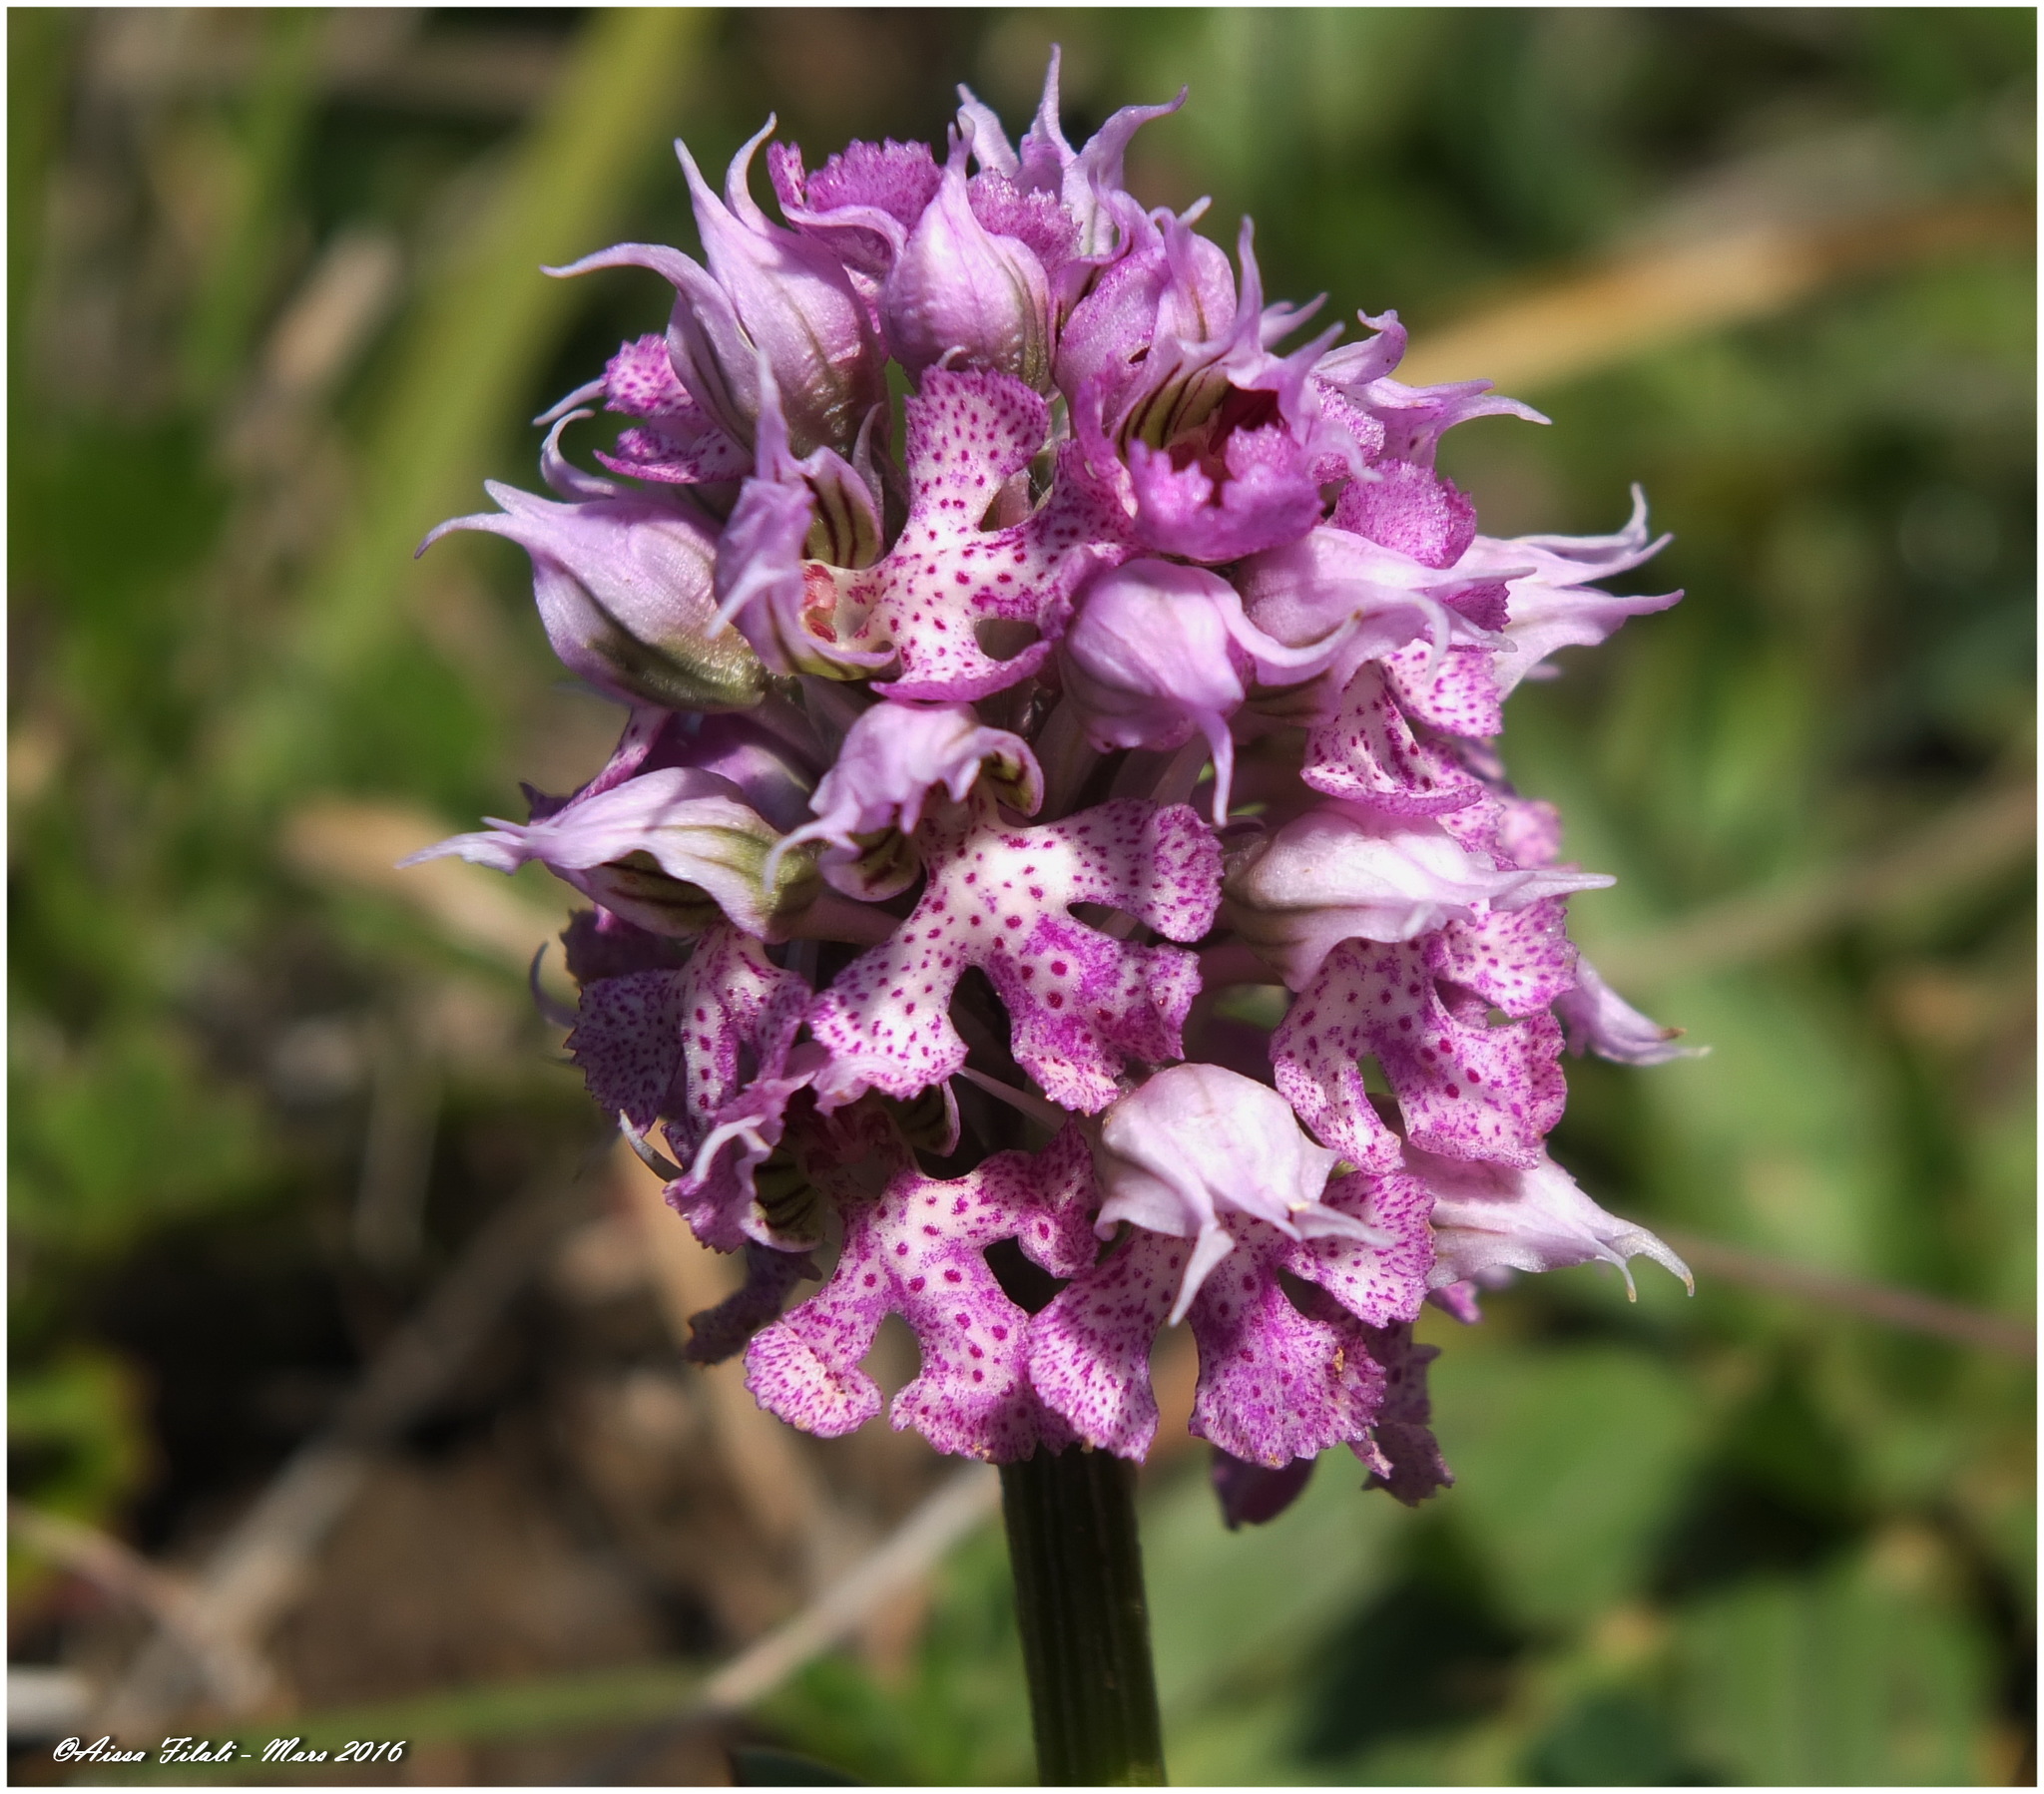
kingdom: Plantae
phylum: Tracheophyta
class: Liliopsida
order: Asparagales
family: Orchidaceae
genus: Neotinea
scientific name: Neotinea lactea
